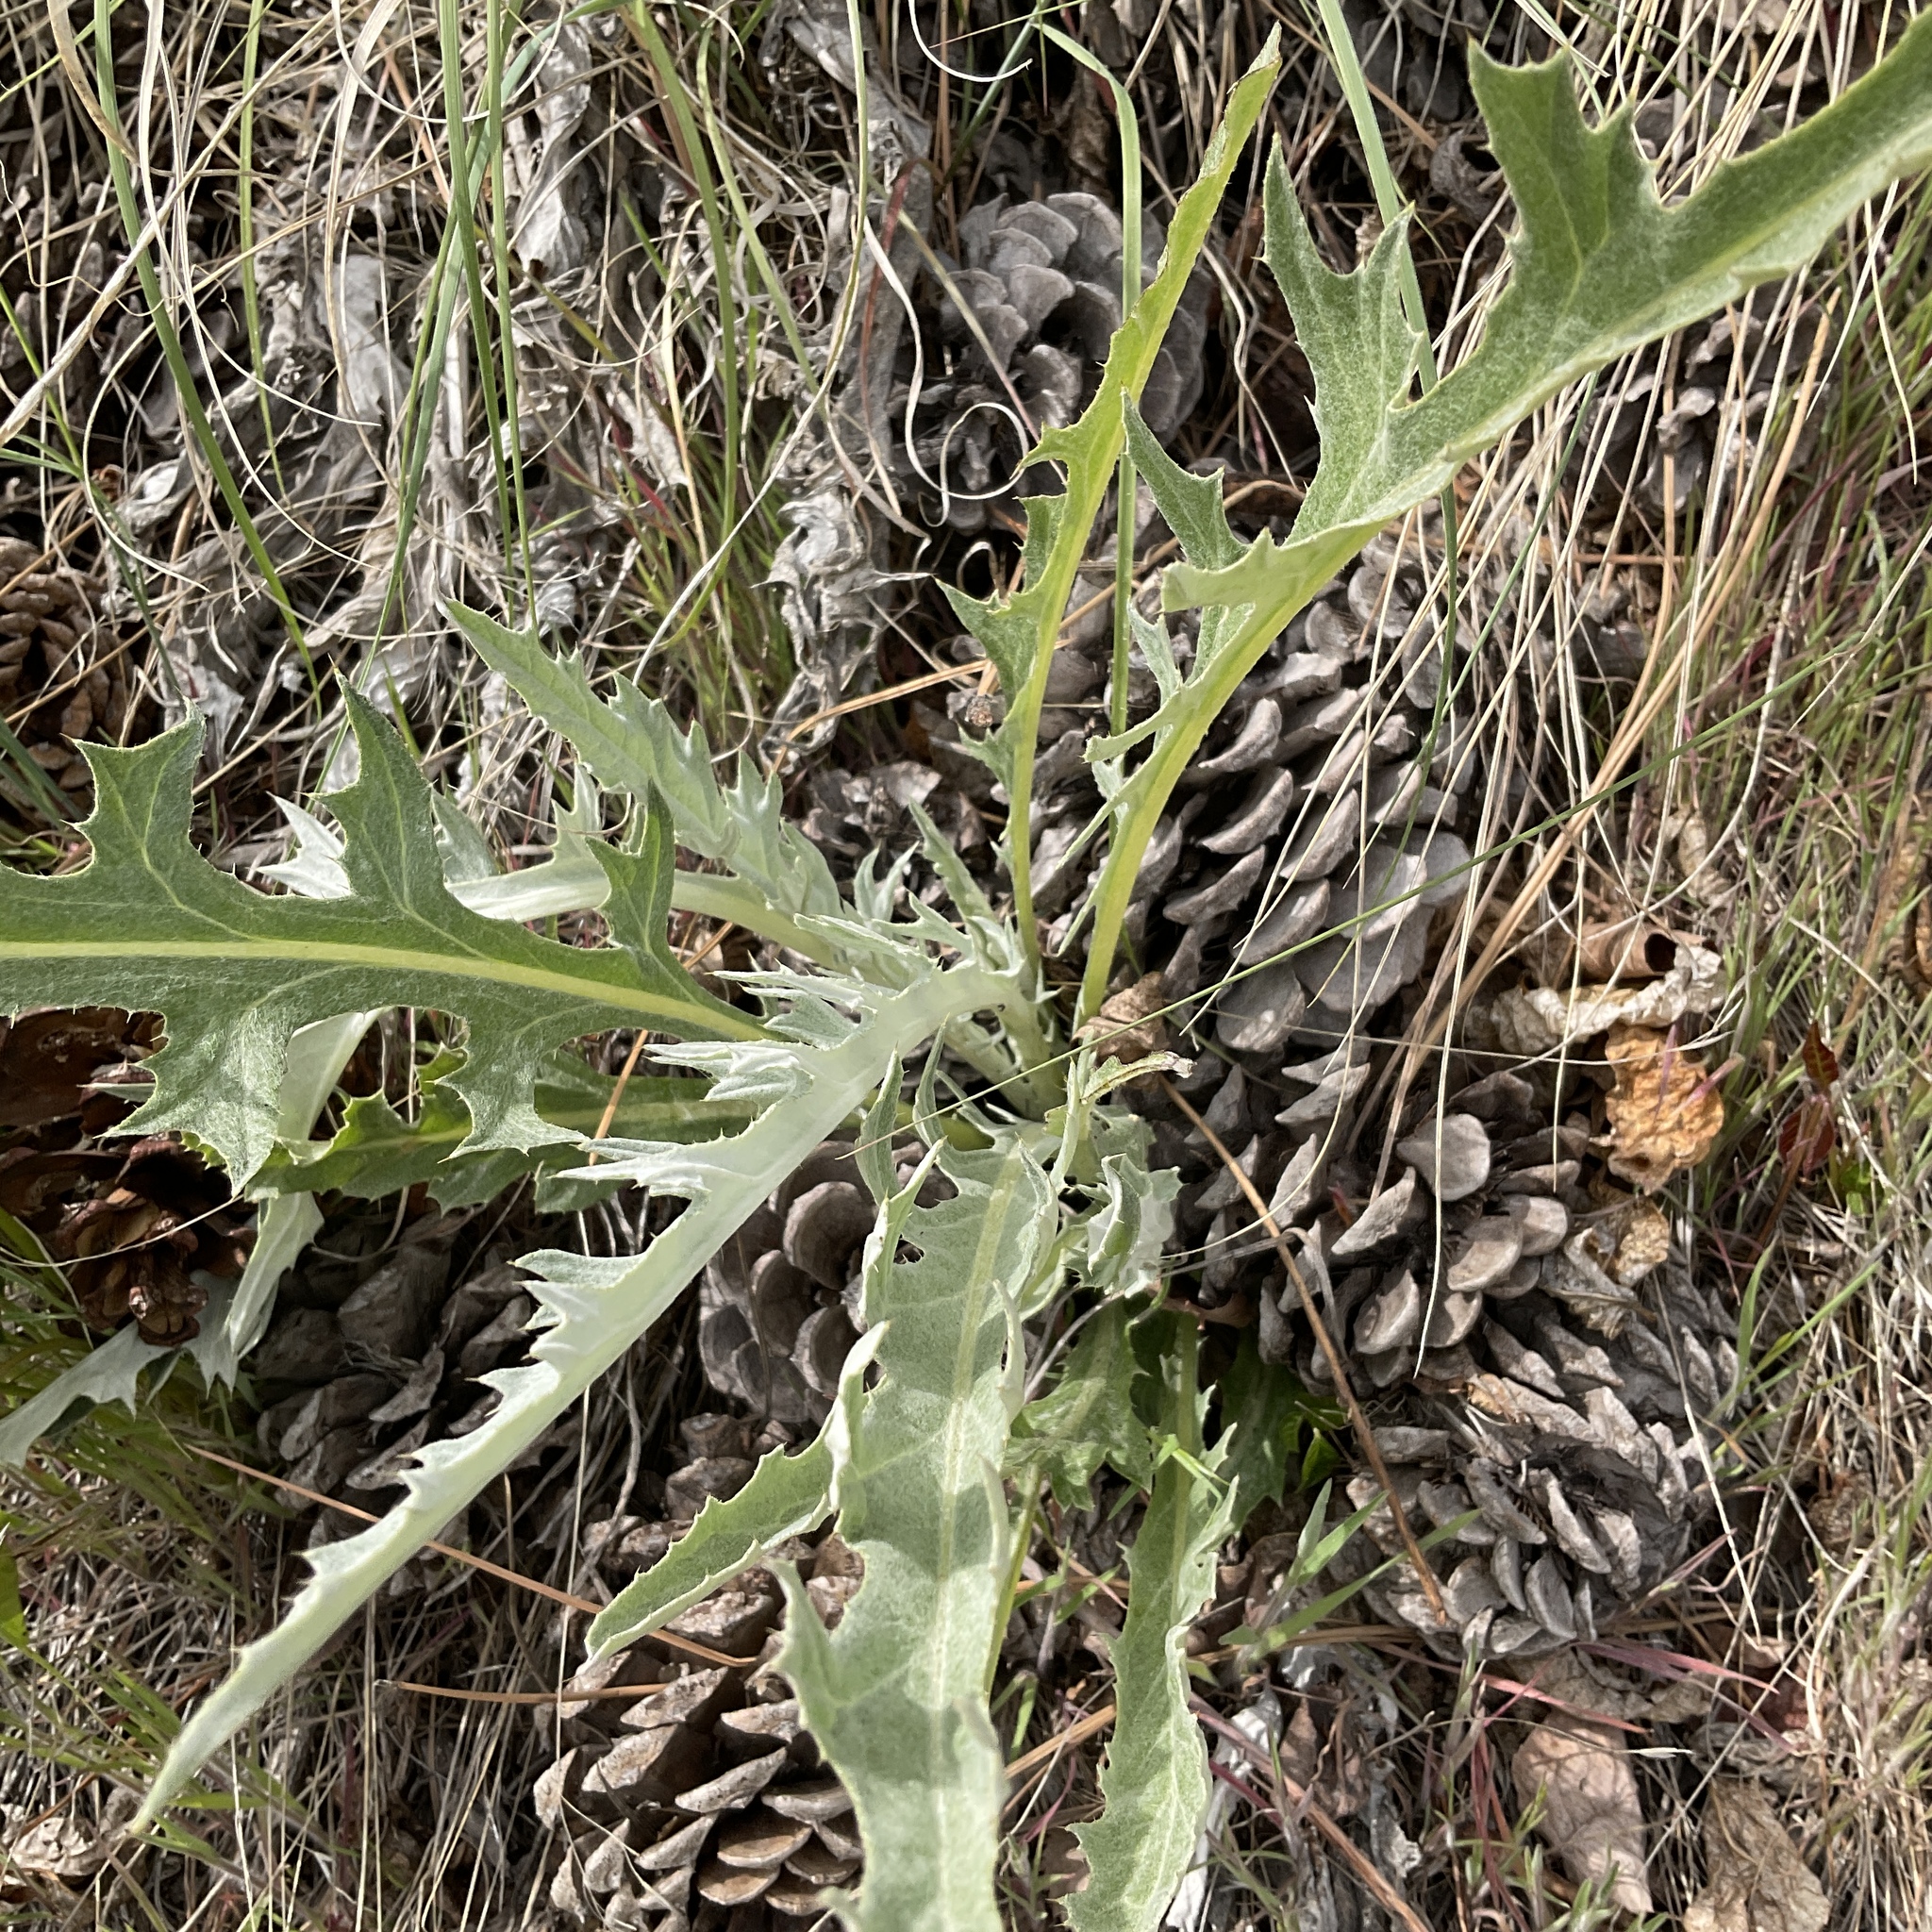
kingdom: Plantae
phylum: Tracheophyta
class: Magnoliopsida
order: Asterales
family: Asteraceae
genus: Cirsium
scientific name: Cirsium undulatum
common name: Pasture thistle
